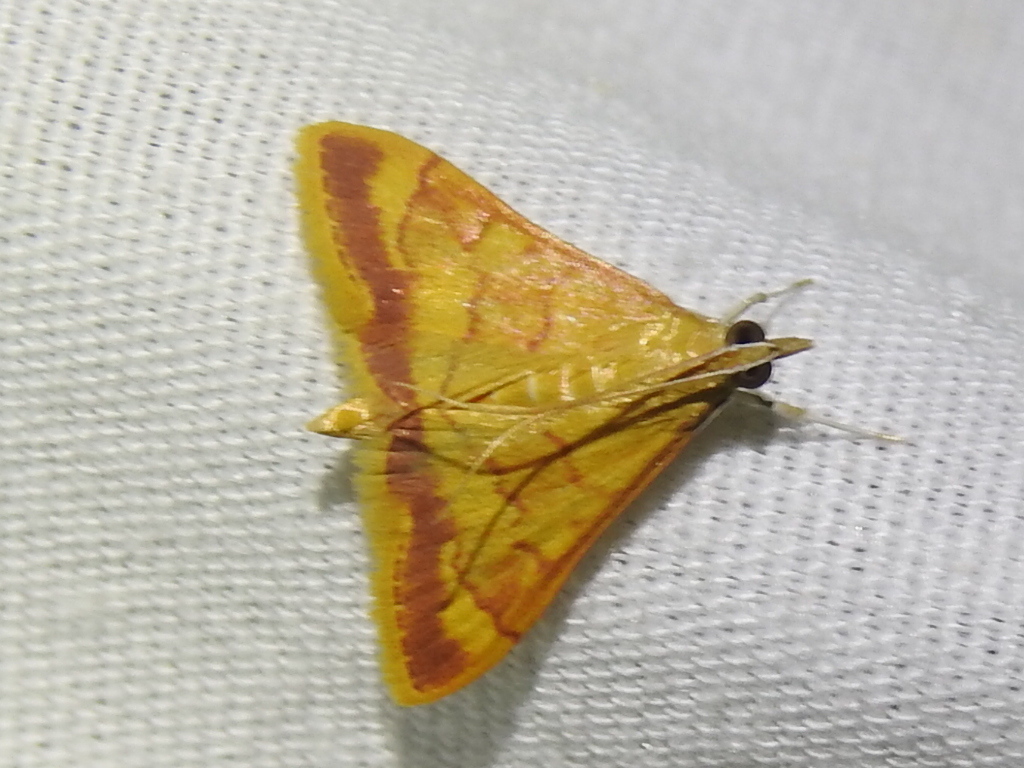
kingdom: Animalia
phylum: Arthropoda
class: Insecta
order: Lepidoptera
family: Crambidae
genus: Pyrausta
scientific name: Pyrausta pseudonythesalis
